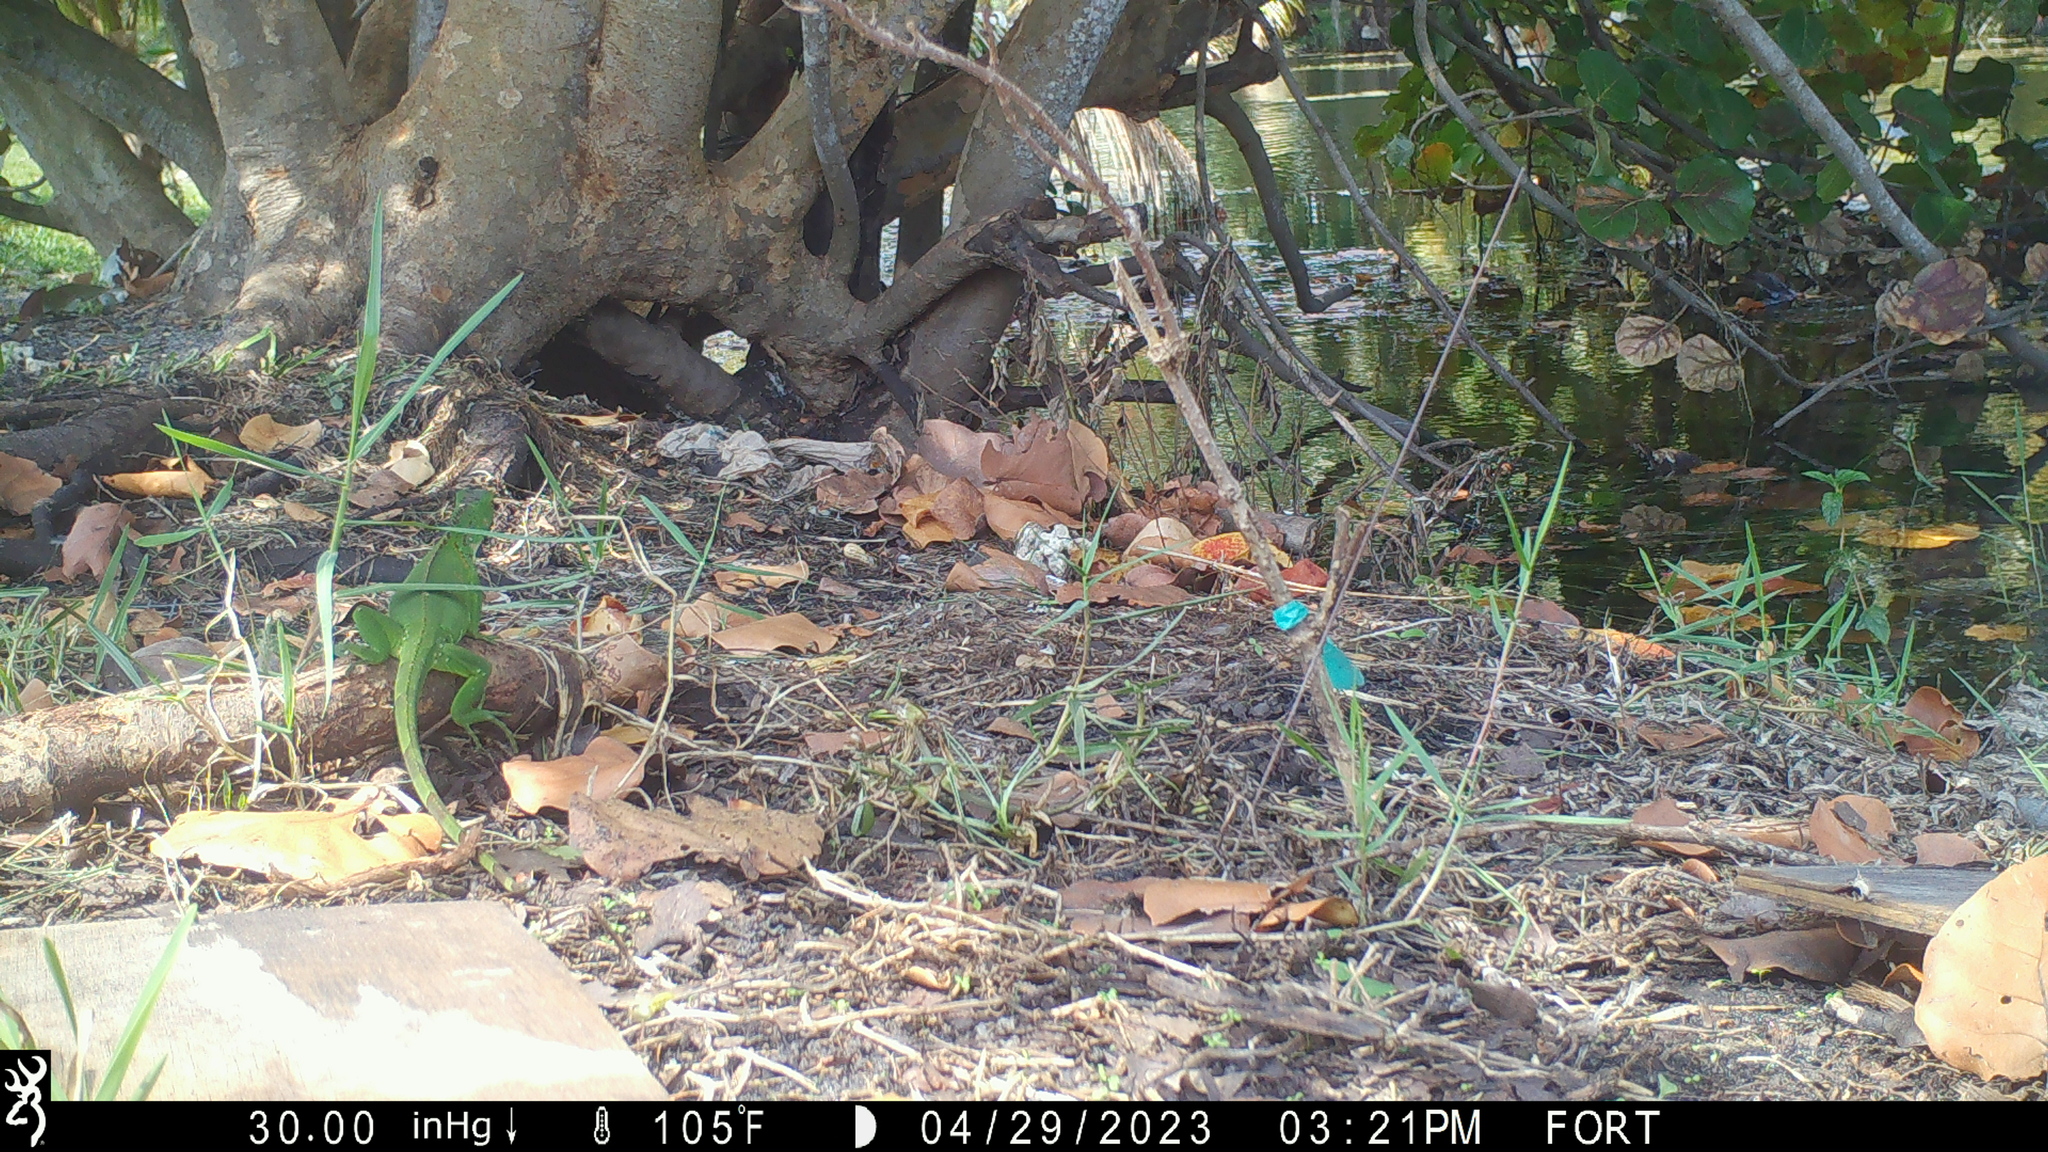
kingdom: Animalia
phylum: Chordata
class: Squamata
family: Iguanidae
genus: Iguana
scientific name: Iguana iguana
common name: Green iguana
